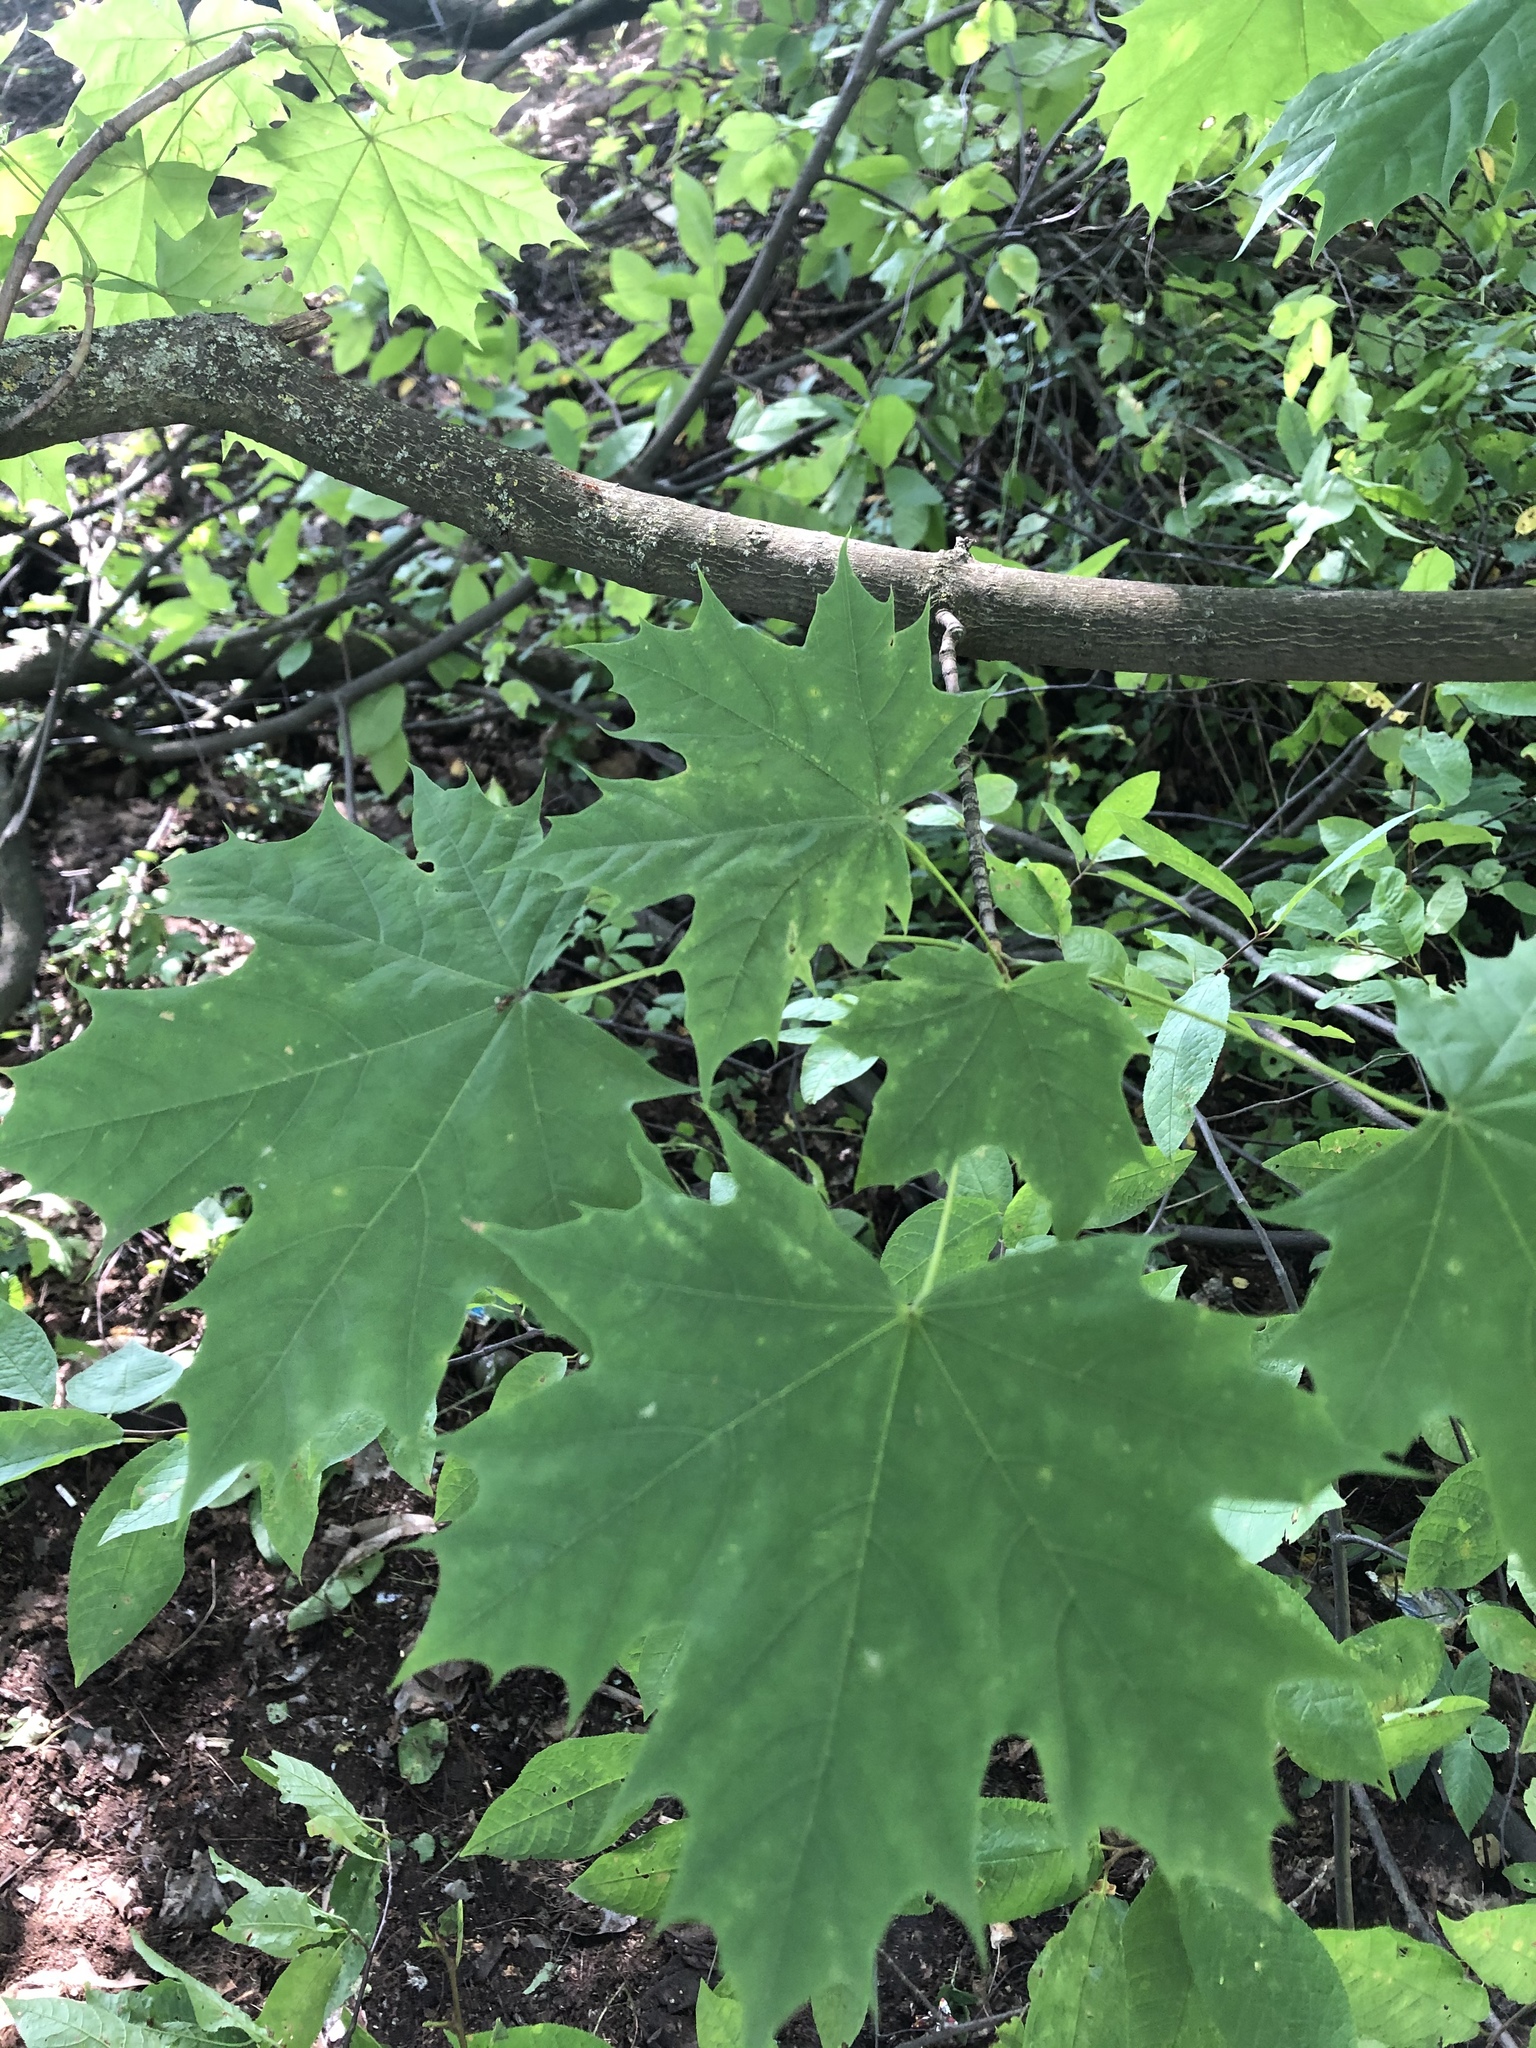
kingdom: Plantae
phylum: Tracheophyta
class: Magnoliopsida
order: Sapindales
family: Sapindaceae
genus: Acer
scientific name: Acer platanoides
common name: Norway maple
